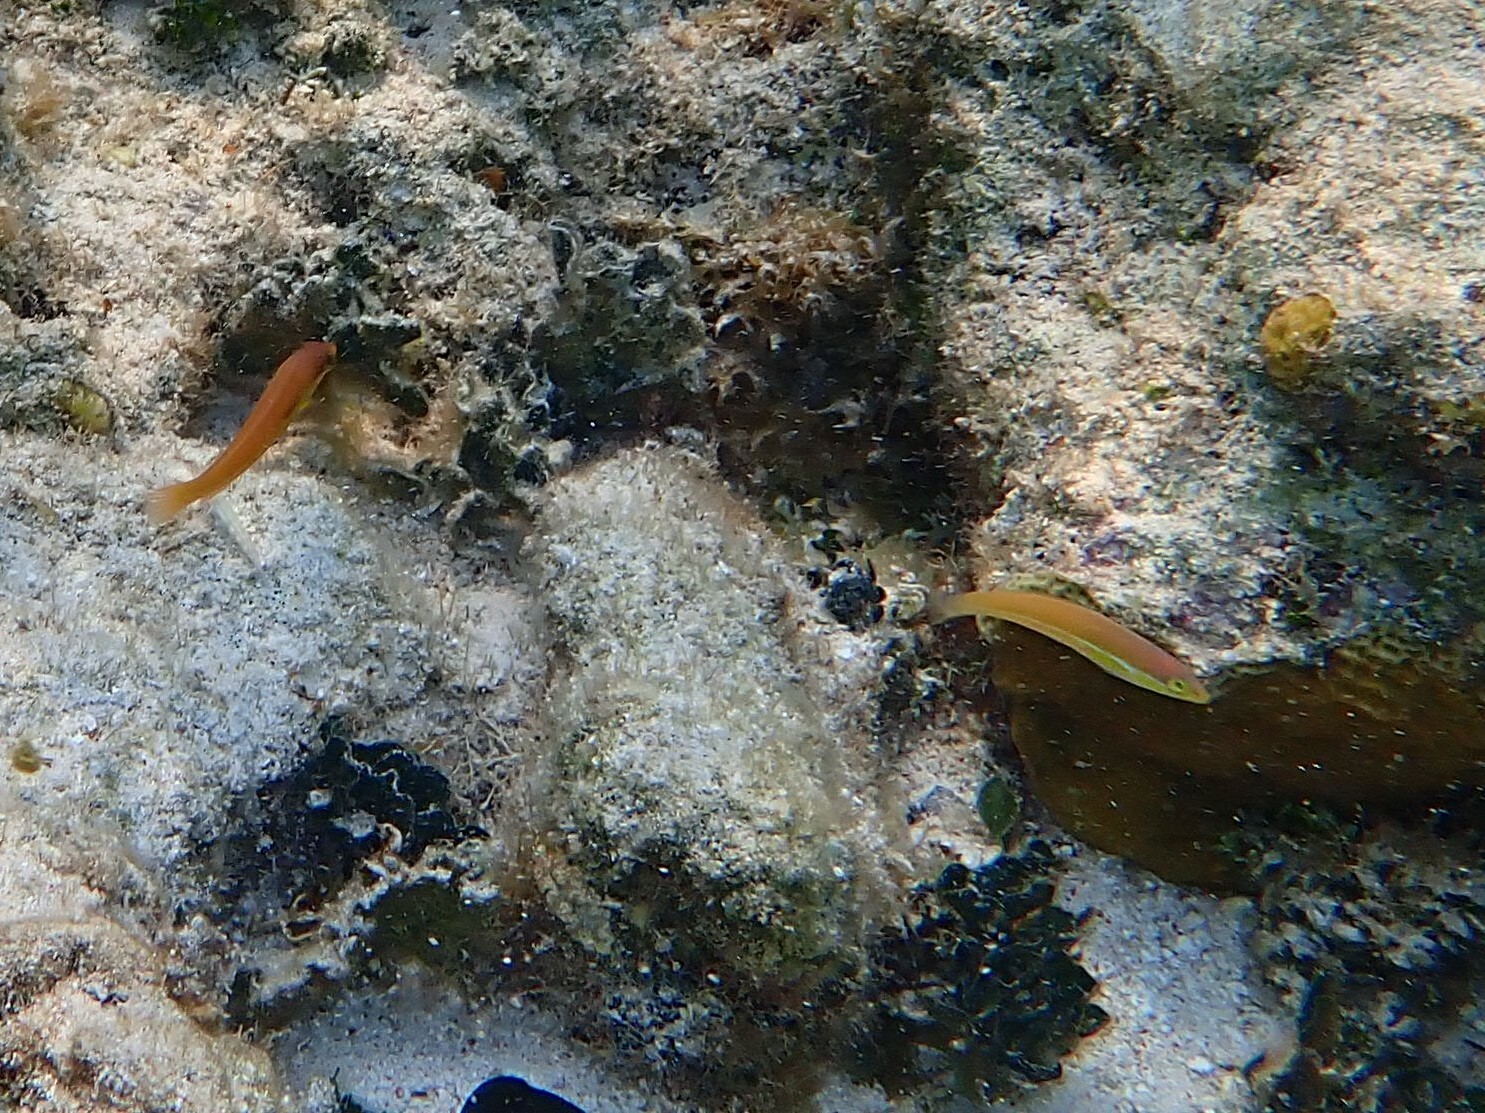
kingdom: Animalia
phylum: Chordata
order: Perciformes
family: Labridae
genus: Halichoeres
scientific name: Halichoeres garnoti
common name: Yellowhead wrasse
